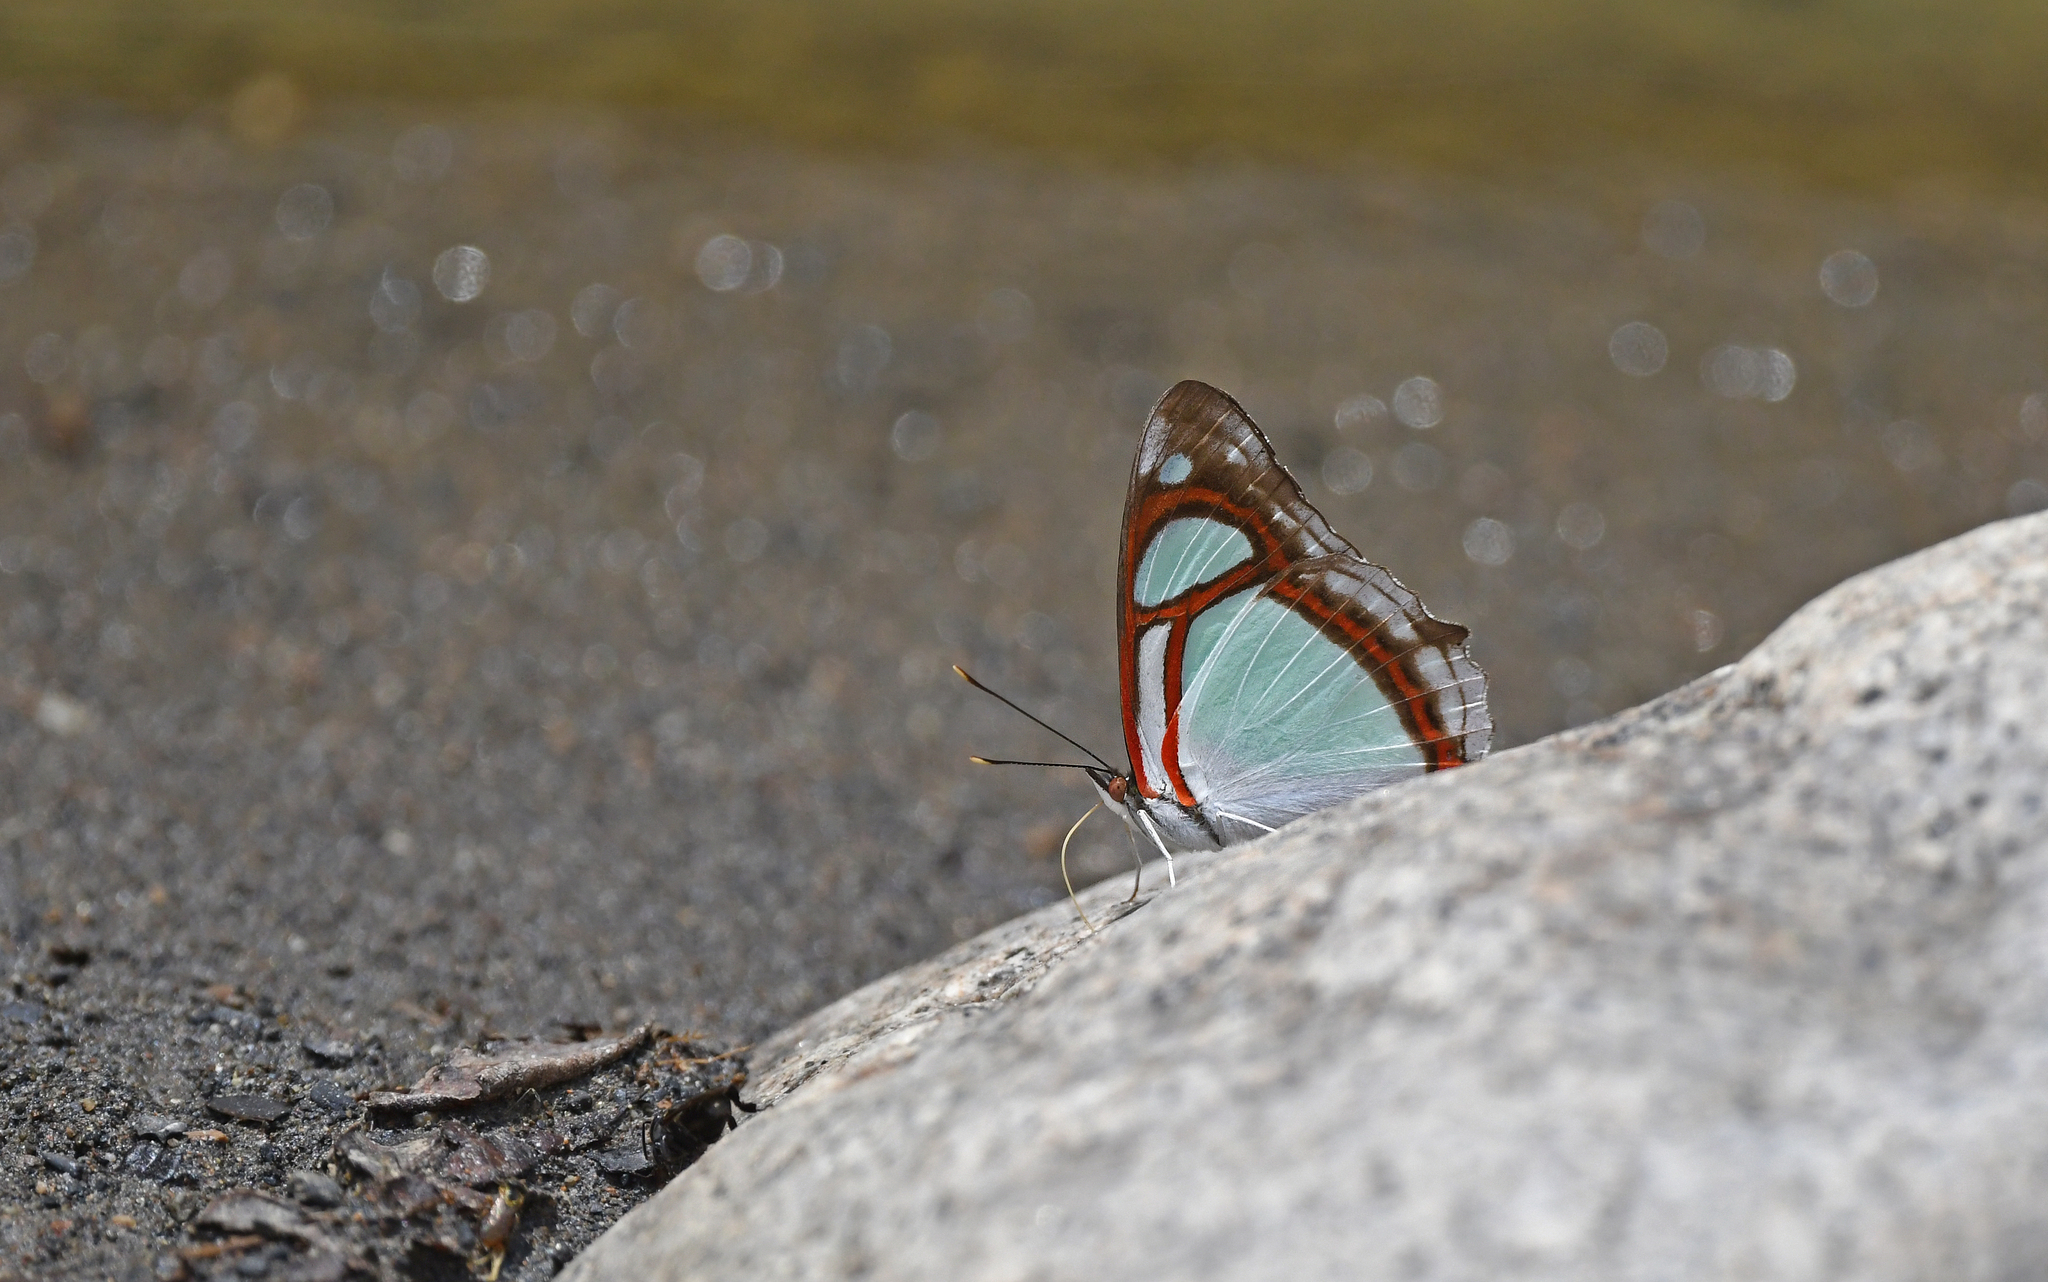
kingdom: Animalia
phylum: Arthropoda
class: Insecta
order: Lepidoptera
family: Nymphalidae
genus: Pyrrhogyra
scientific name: Pyrrhogyra edocla
